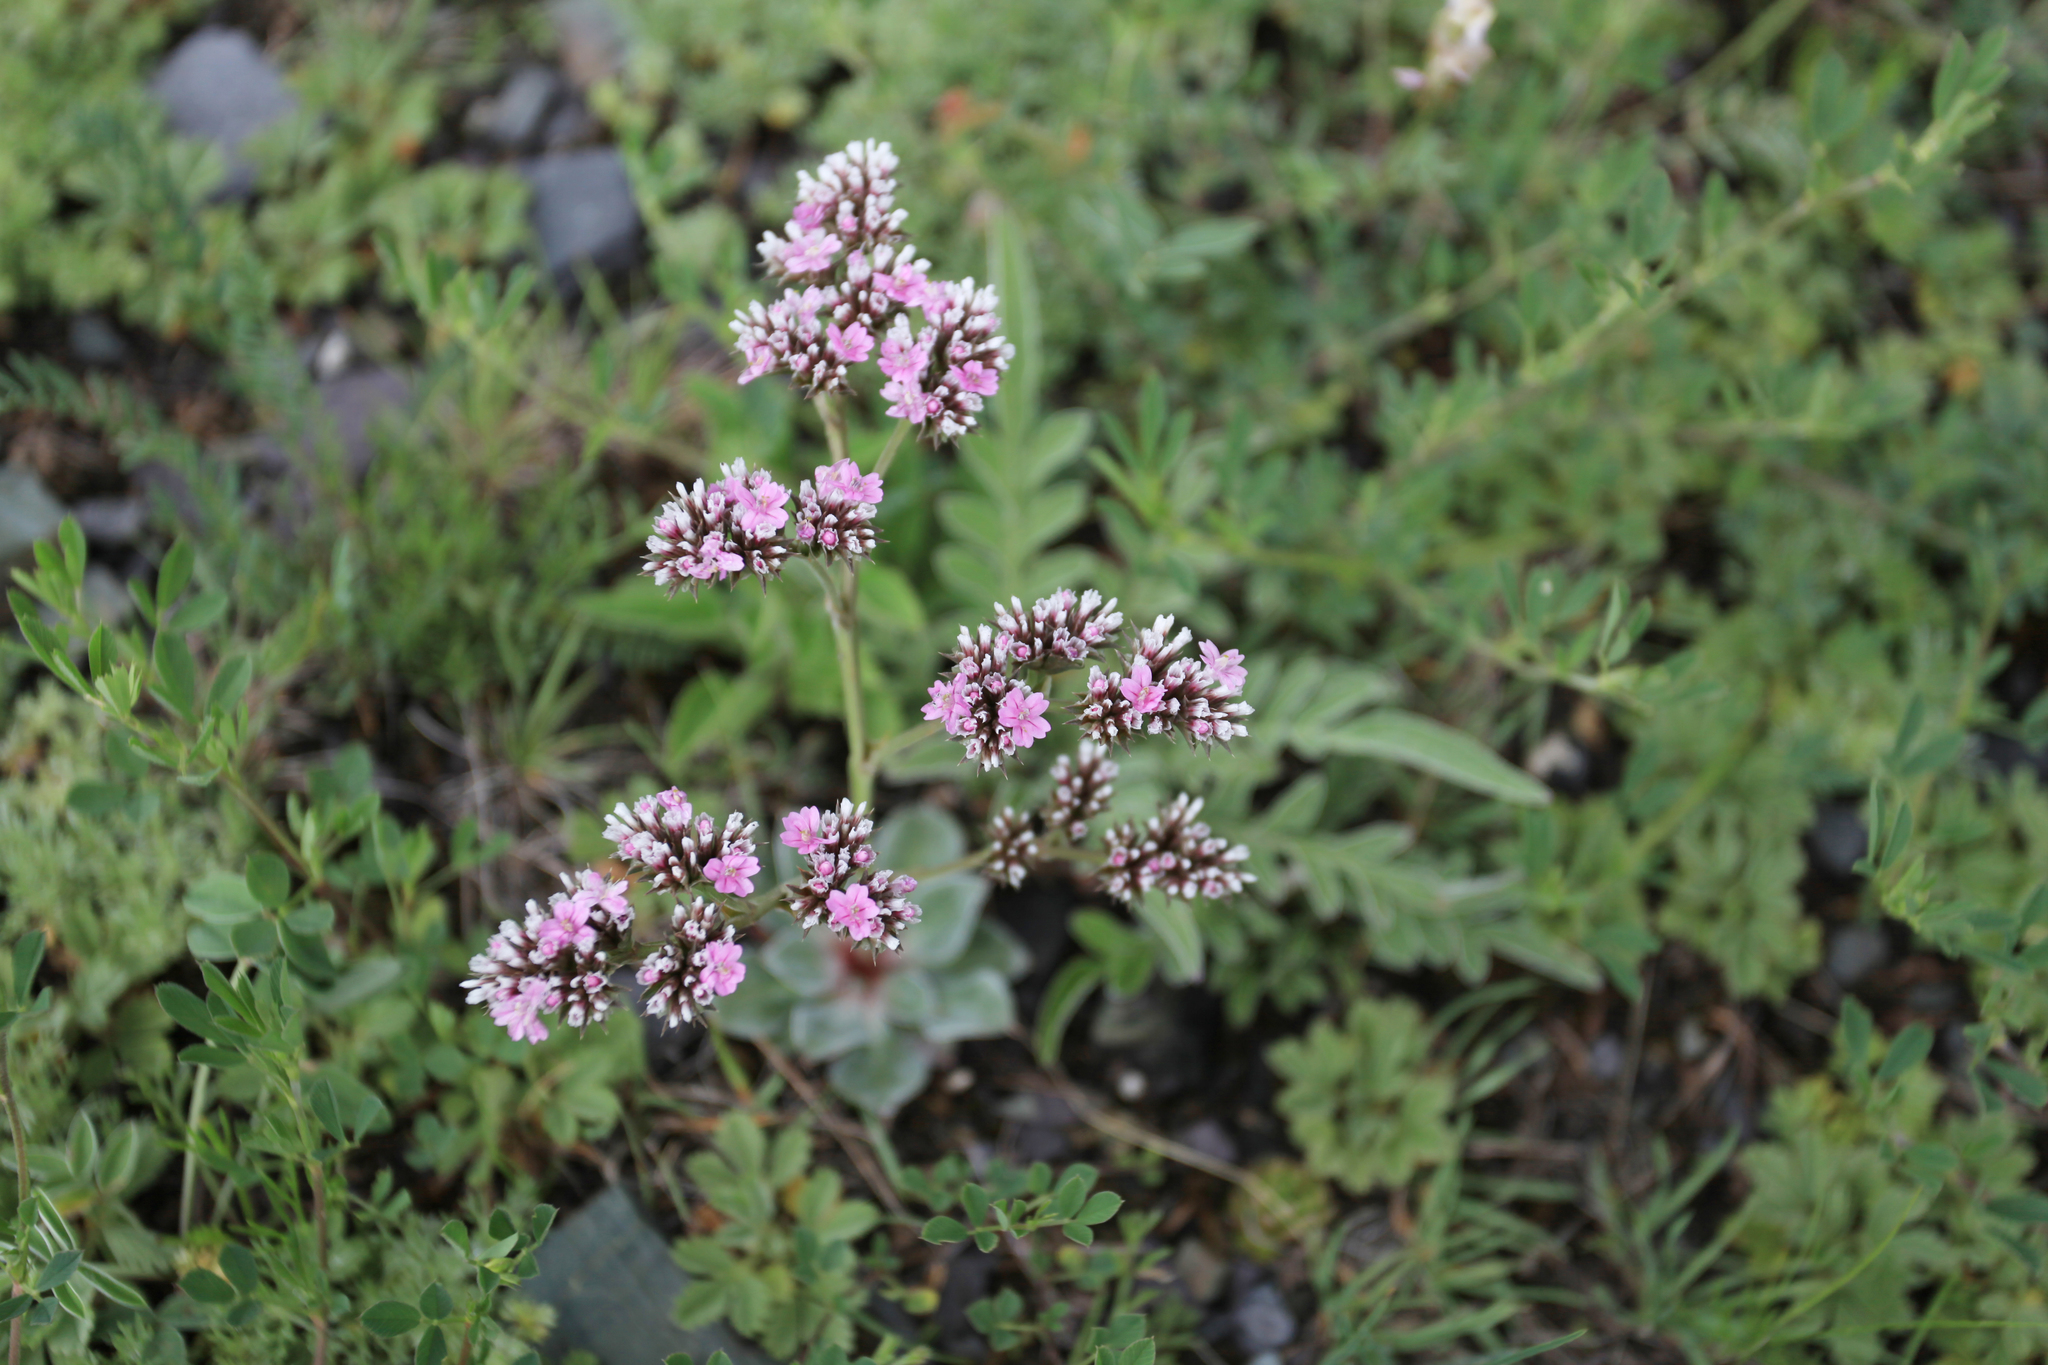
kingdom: Plantae
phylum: Tracheophyta
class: Magnoliopsida
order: Caryophyllales
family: Plumbaginaceae
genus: Goniolimon
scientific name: Goniolimon speciosum
